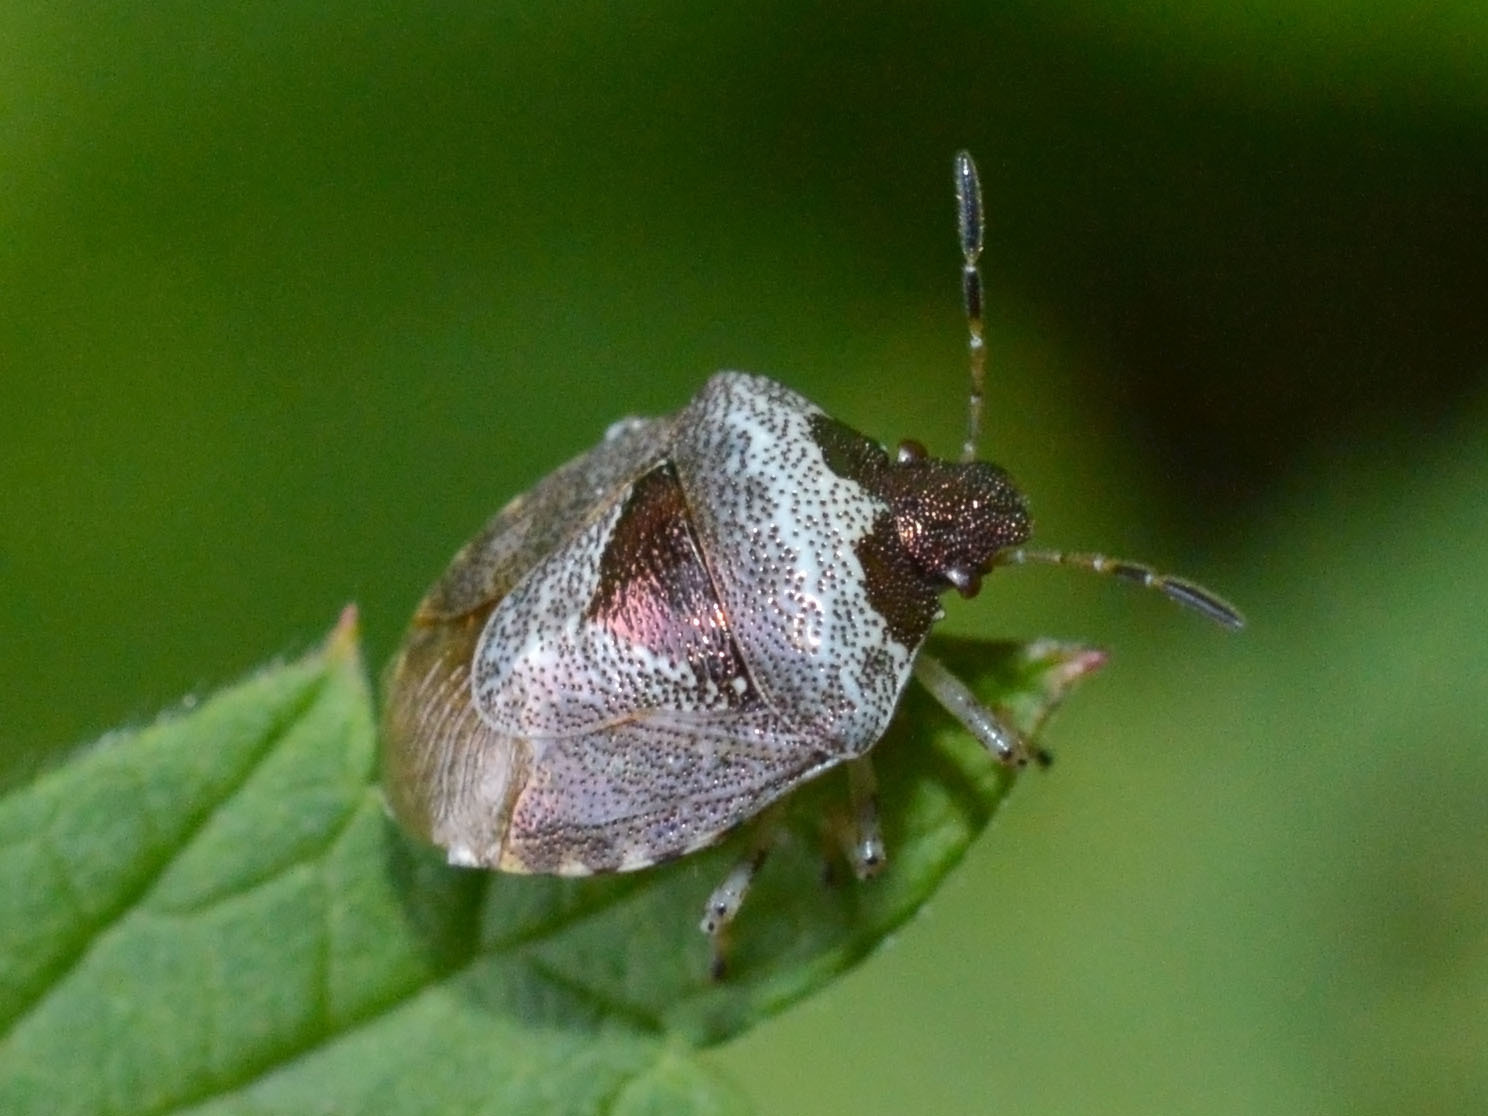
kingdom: Animalia
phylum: Arthropoda
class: Insecta
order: Hemiptera
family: Pentatomidae
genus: Eysarcoris
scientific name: Eysarcoris venustissimus
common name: Woundwort shieldbug
